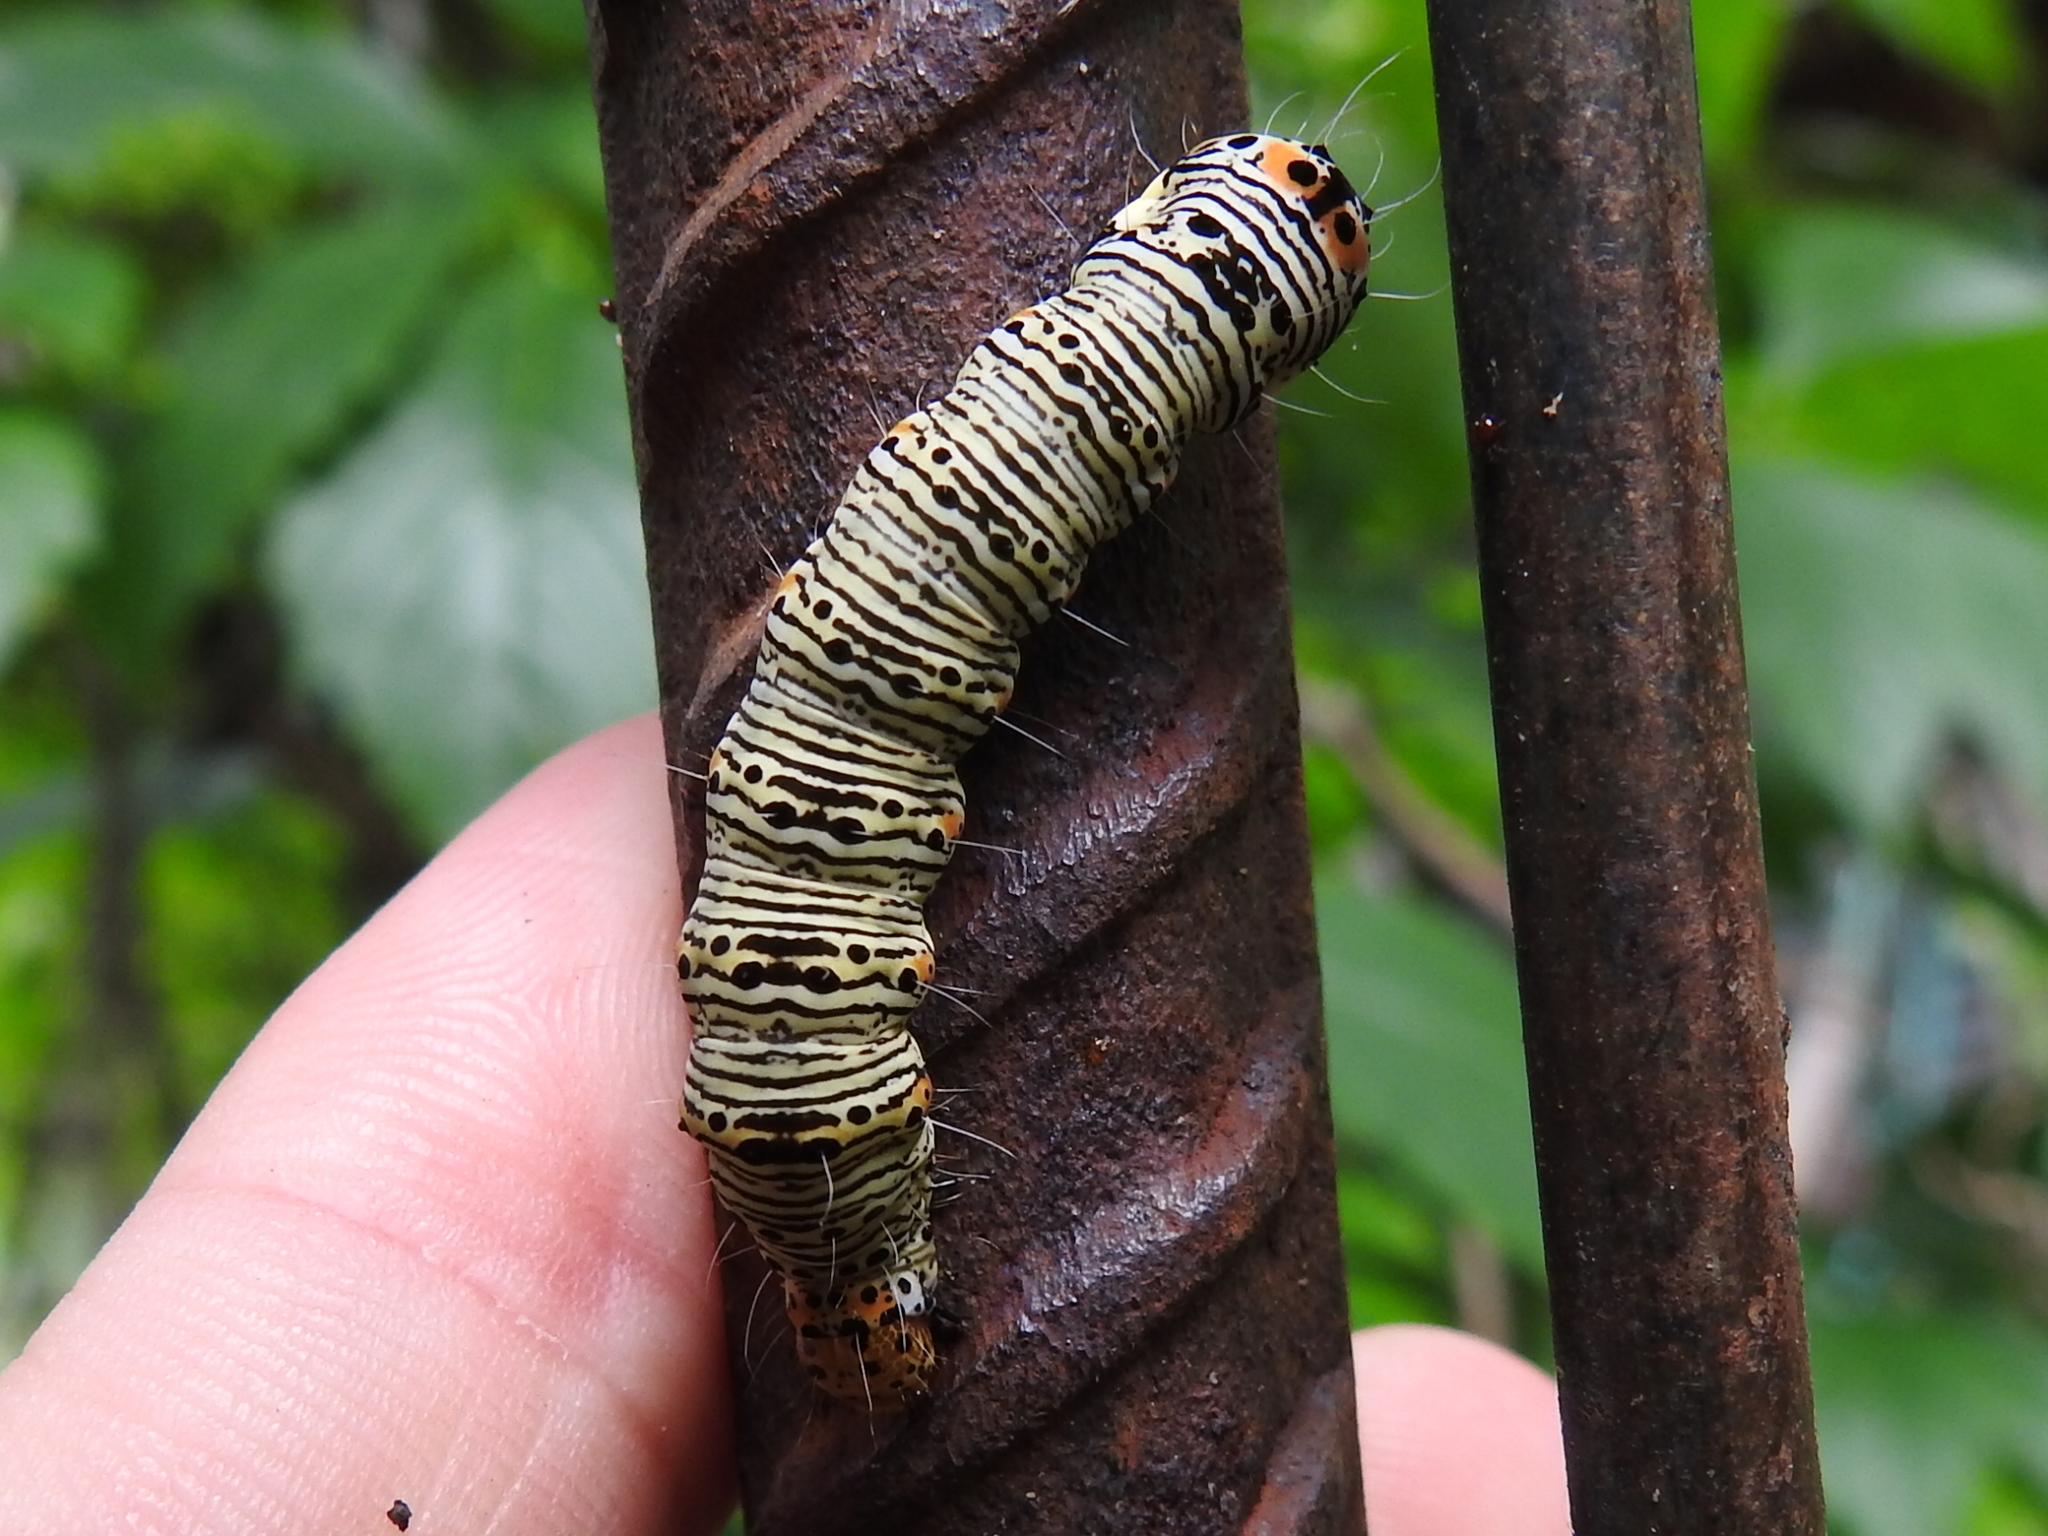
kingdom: Animalia
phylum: Arthropoda
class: Insecta
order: Lepidoptera
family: Noctuidae
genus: Alypia
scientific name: Alypia octomaculata
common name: Eight-spotted forester
